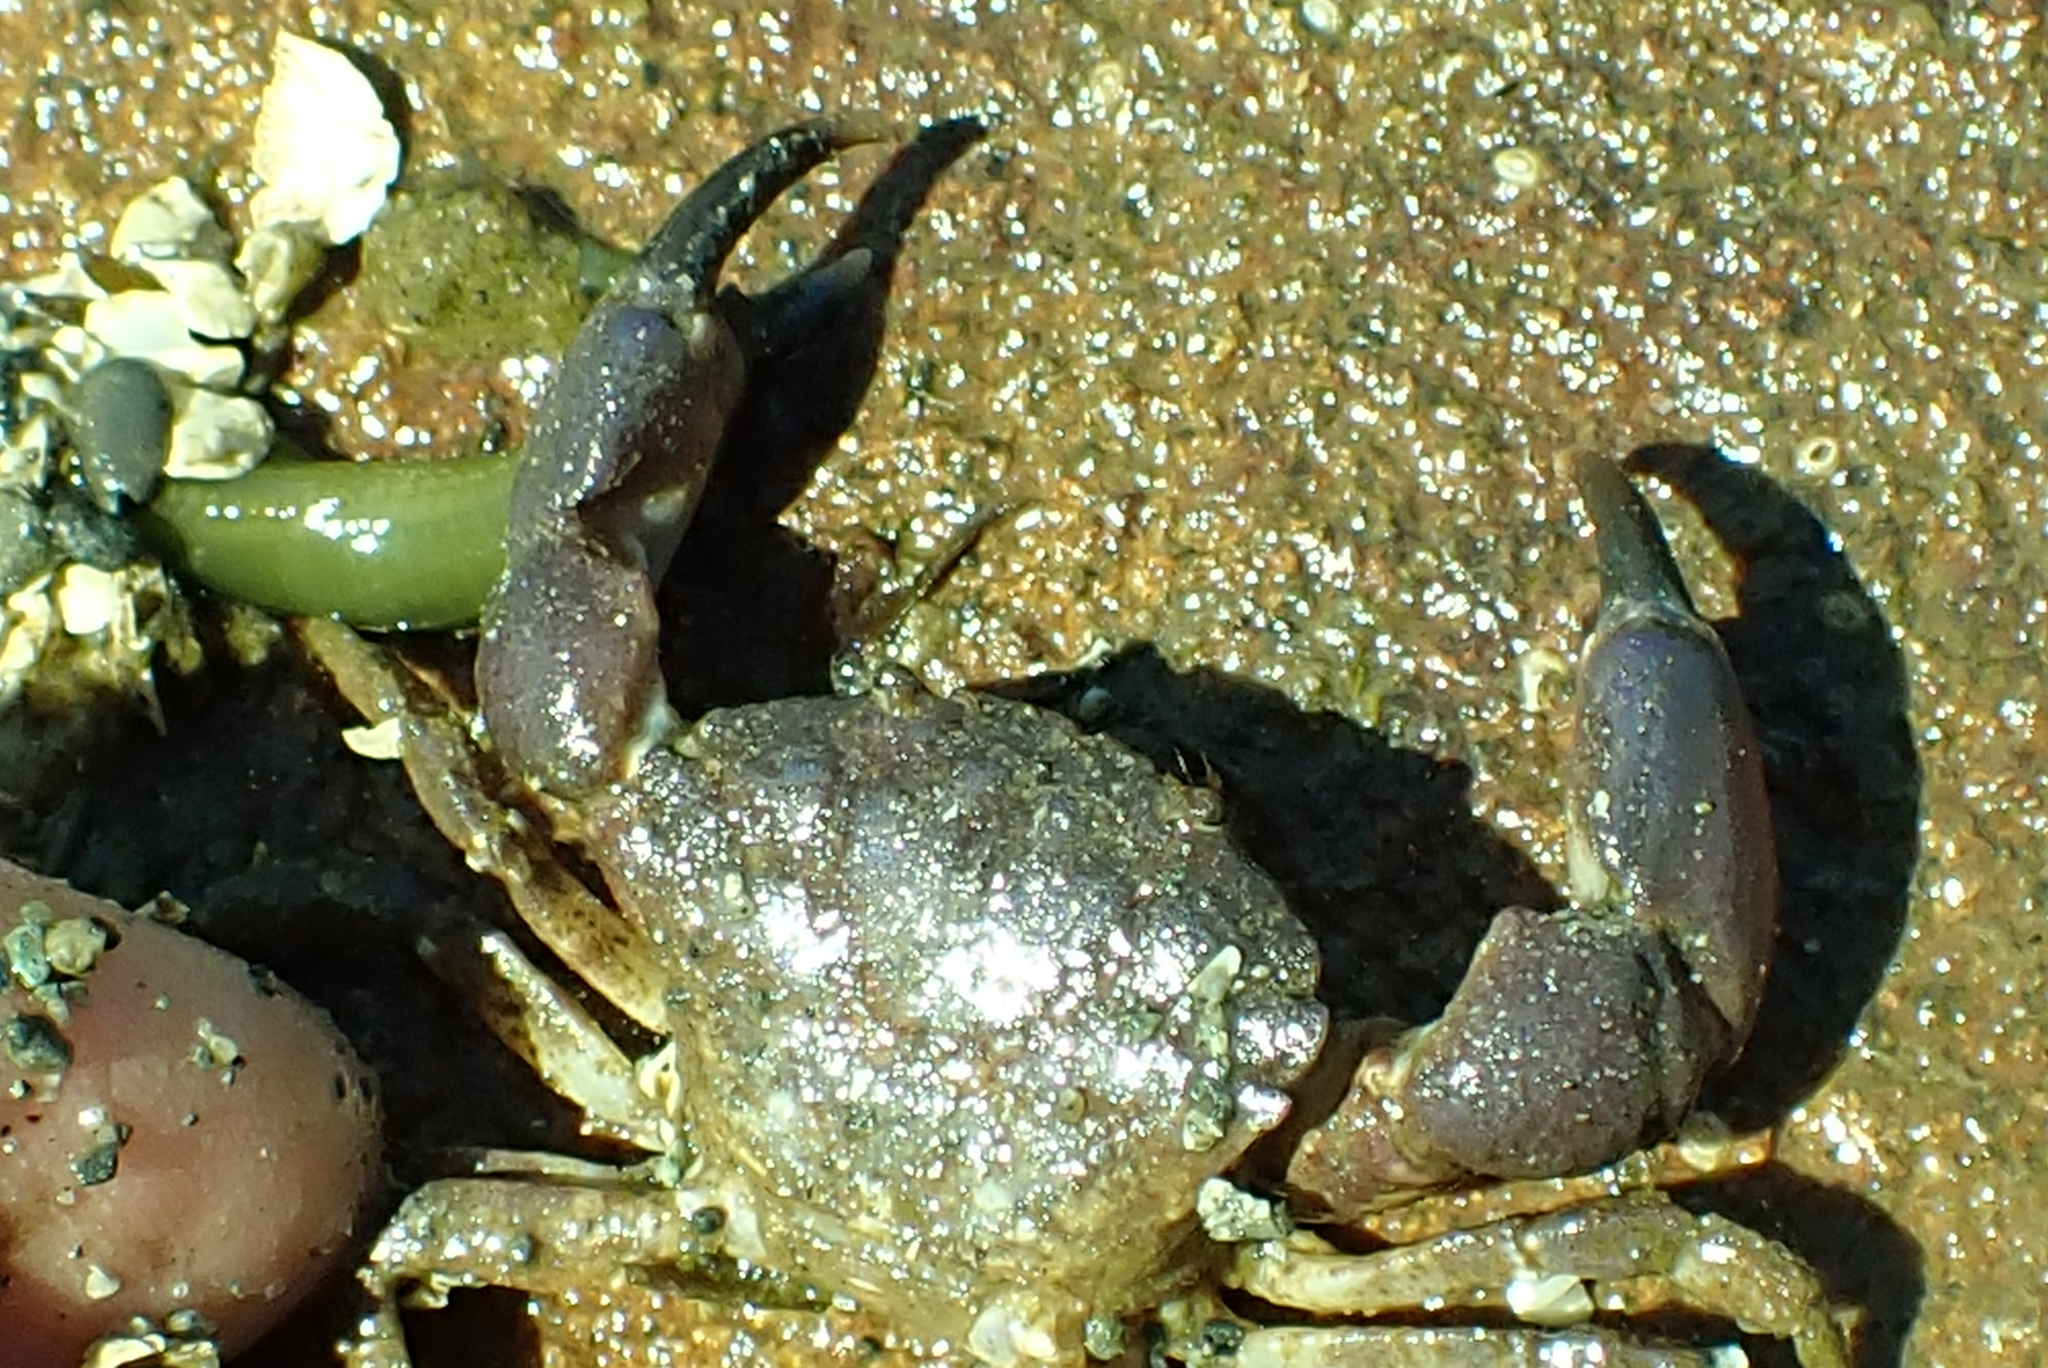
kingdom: Animalia
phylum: Arthropoda
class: Malacostraca
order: Decapoda
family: Panopeidae
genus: Lophopanopeus
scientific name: Lophopanopeus bellus
